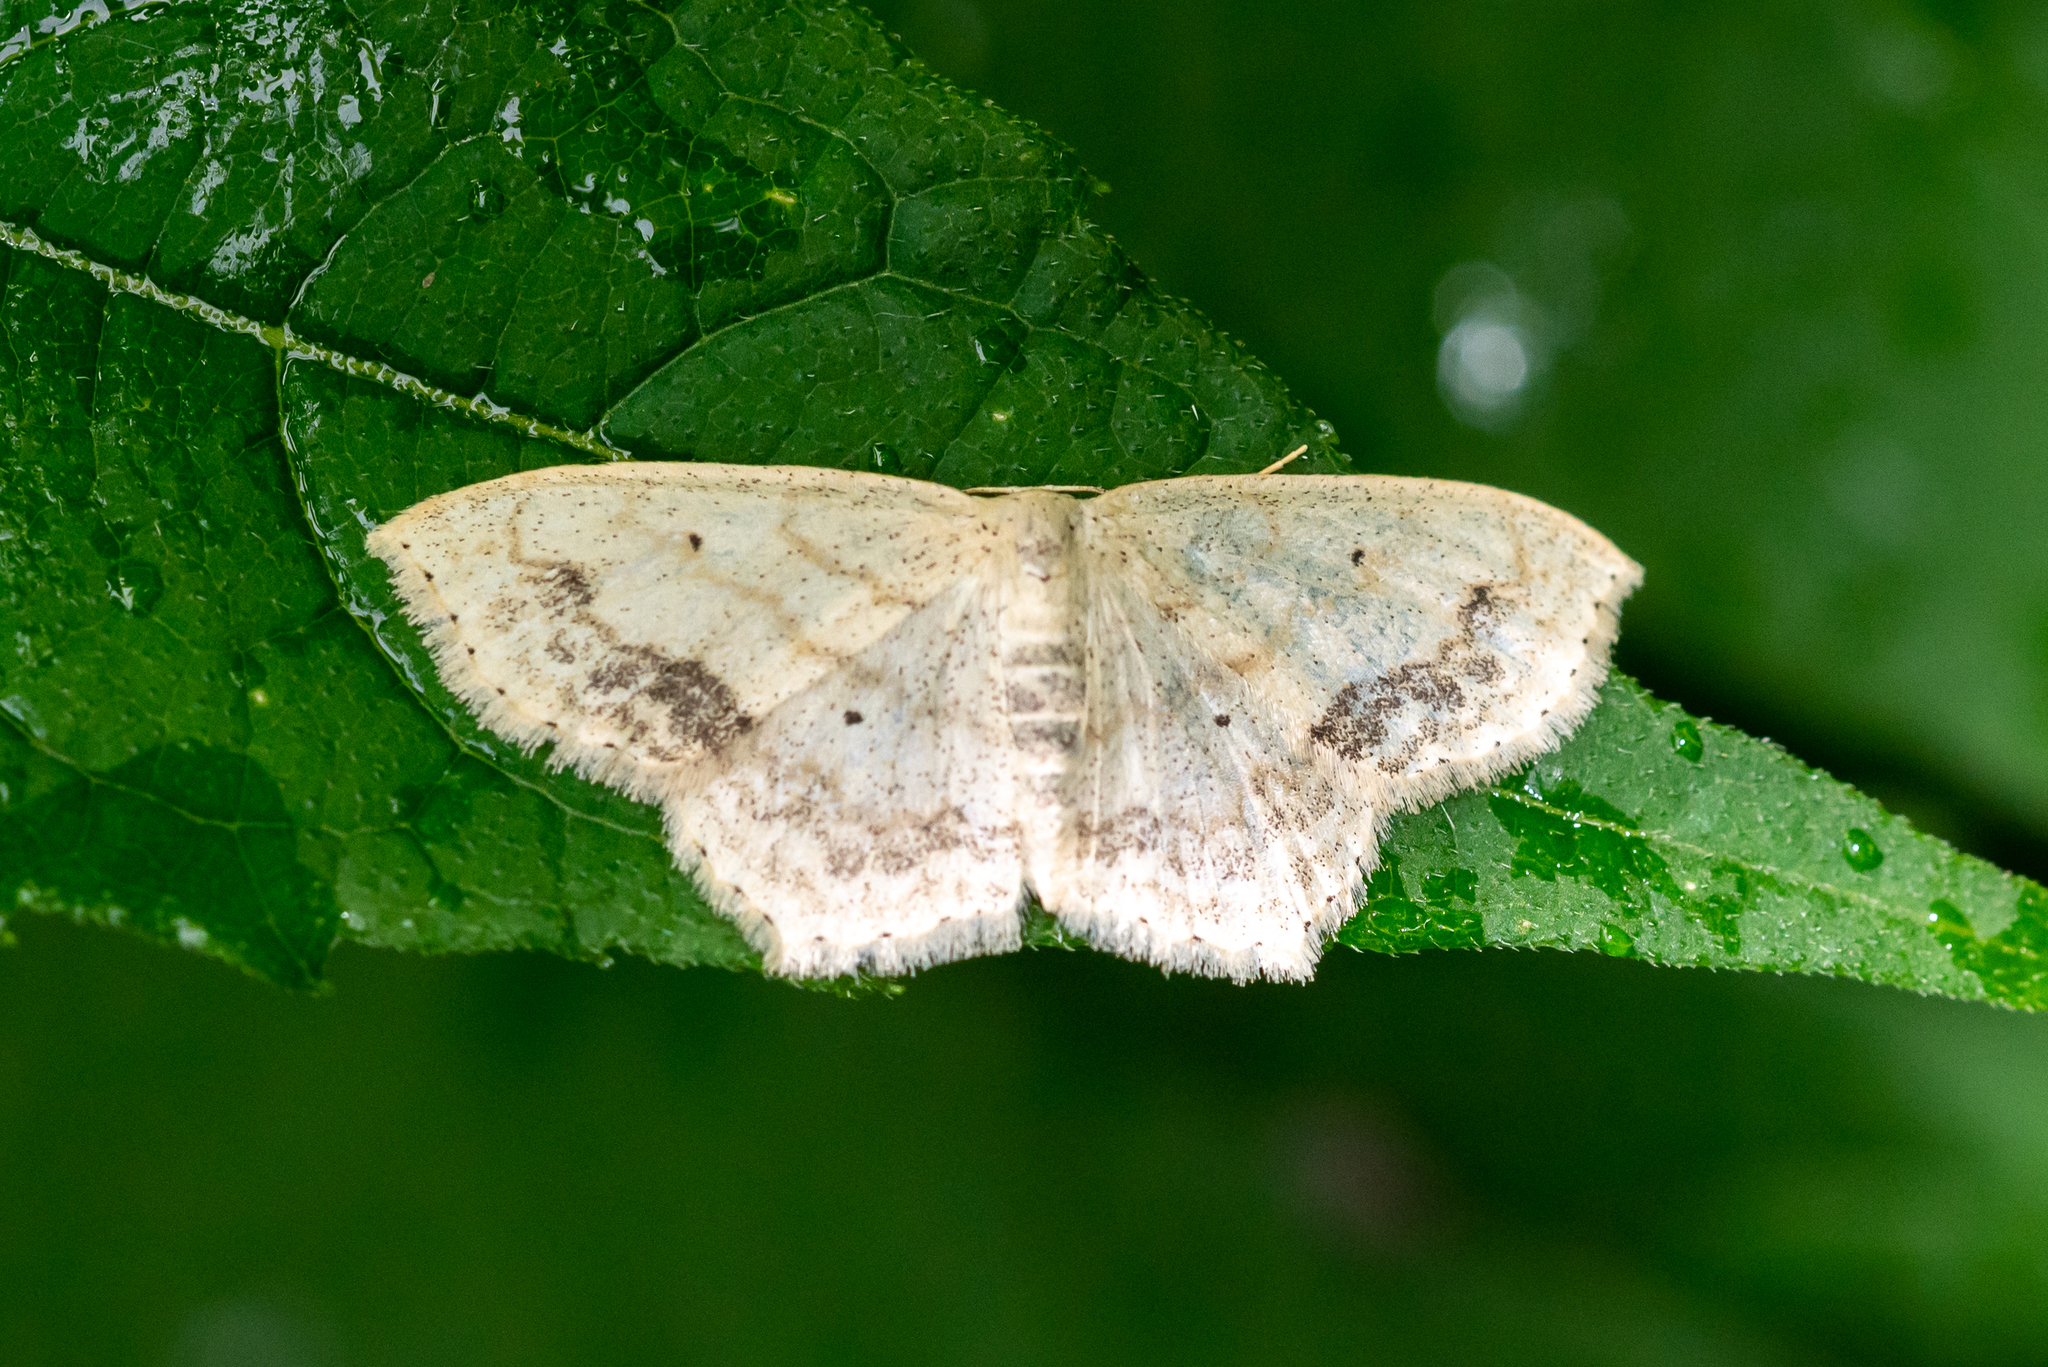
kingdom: Animalia
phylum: Arthropoda
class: Insecta
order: Lepidoptera
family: Geometridae
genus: Scopula
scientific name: Scopula limboundata
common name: Large lace border
